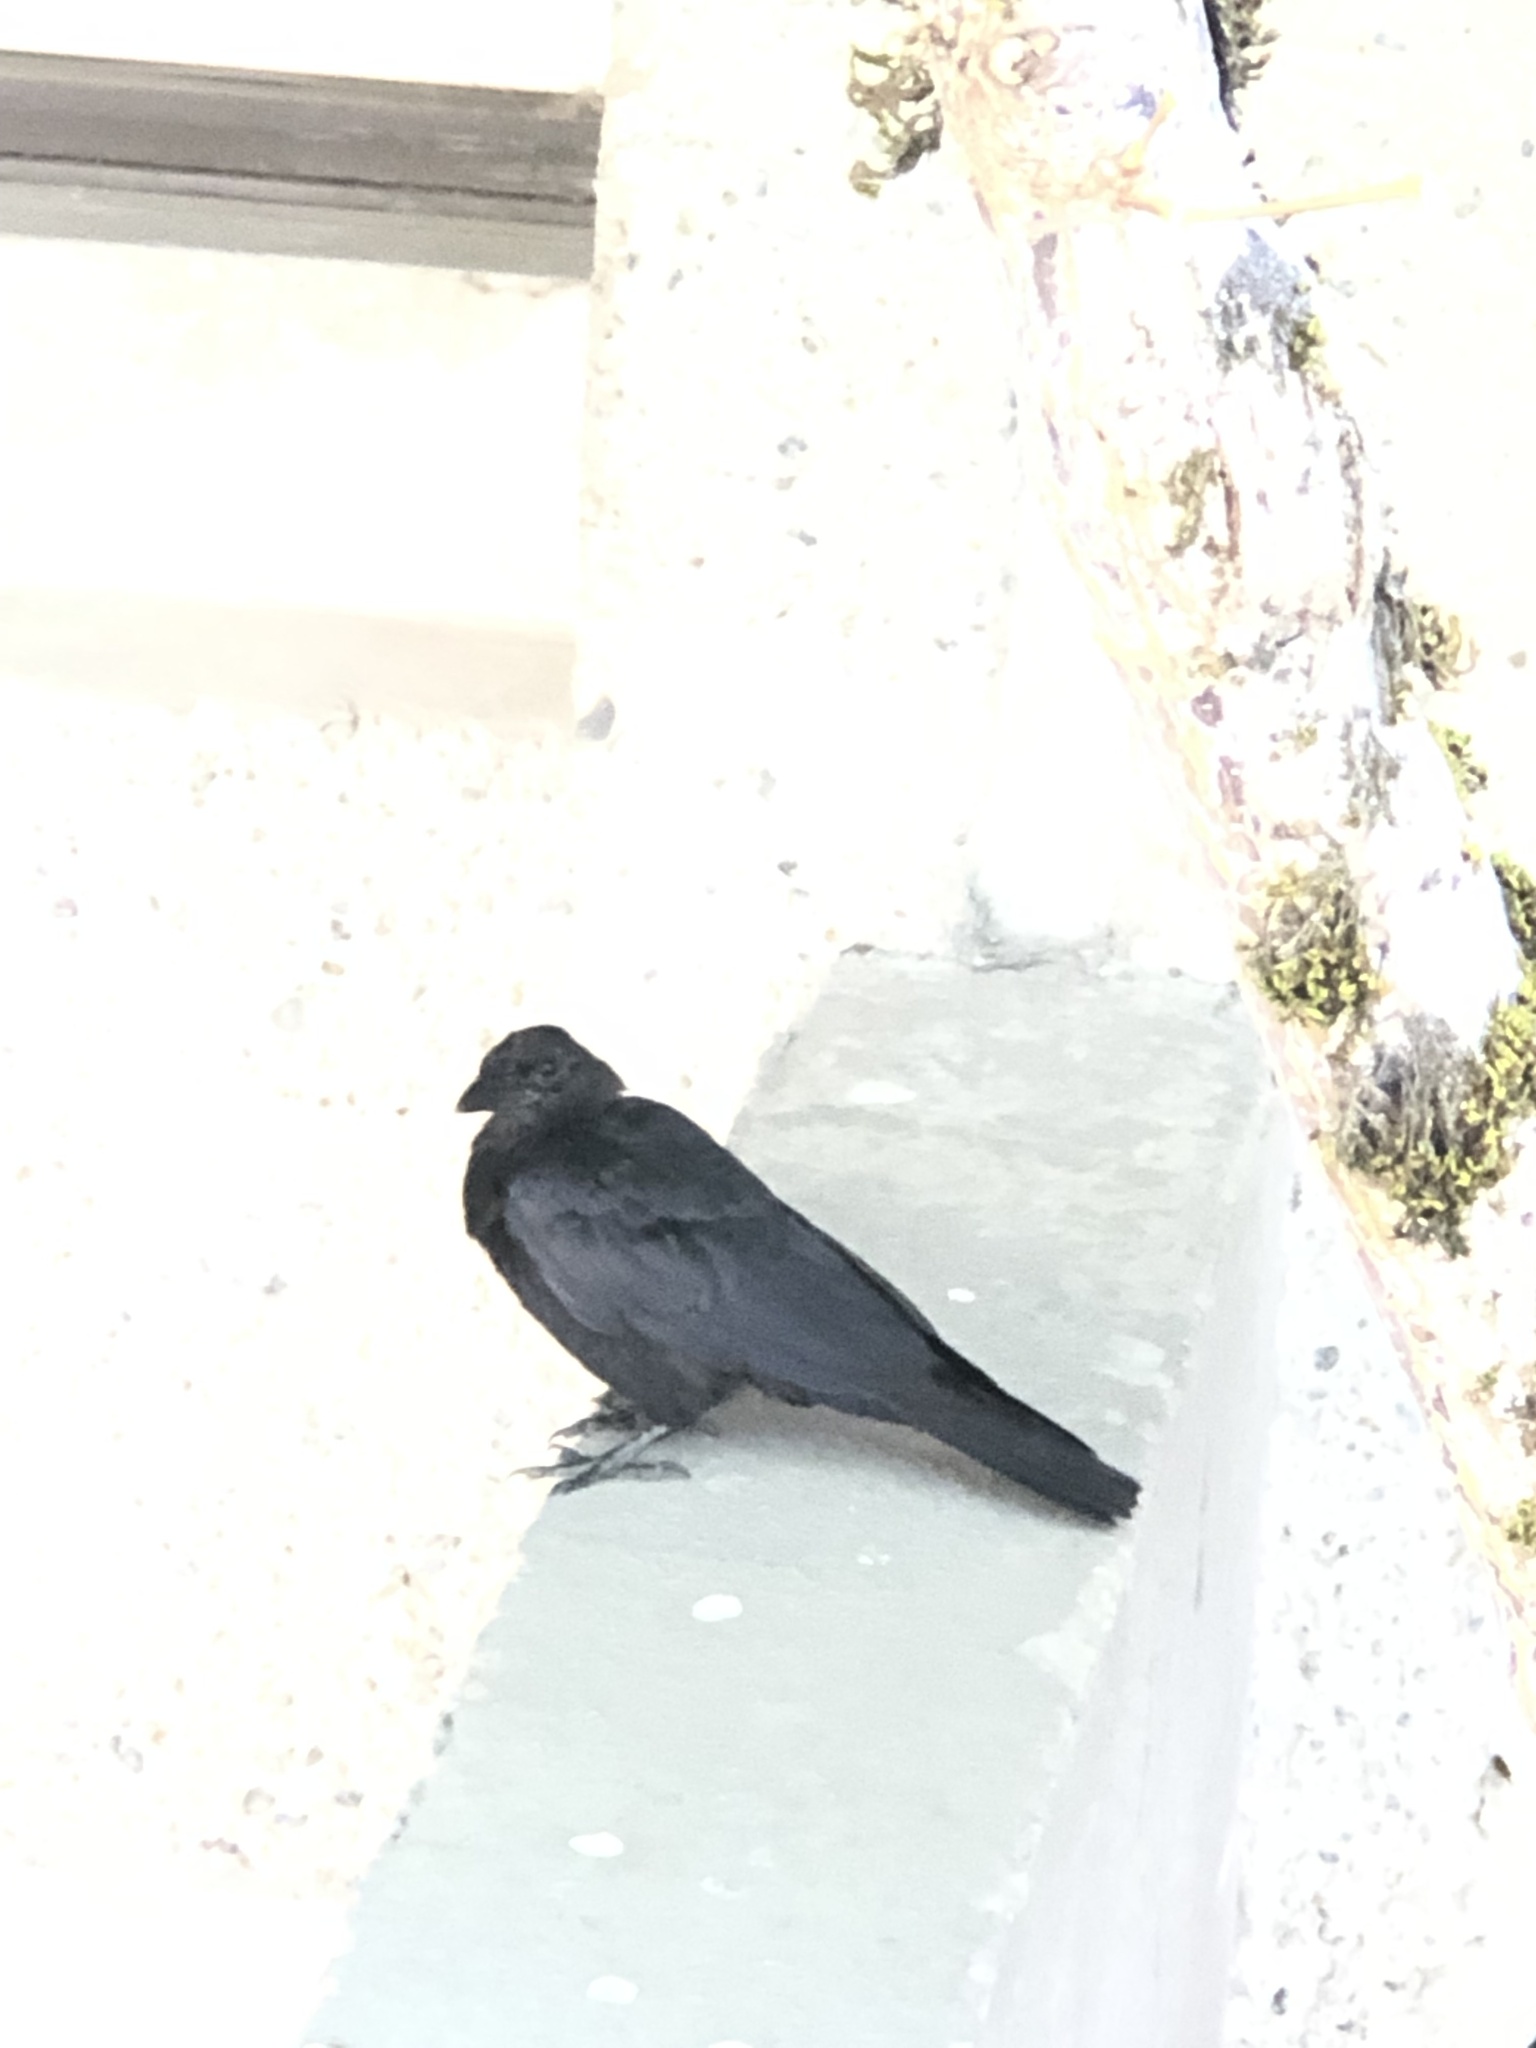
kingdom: Animalia
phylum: Chordata
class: Aves
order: Passeriformes
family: Corvidae
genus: Corvus
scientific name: Corvus brachyrhynchos
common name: American crow
